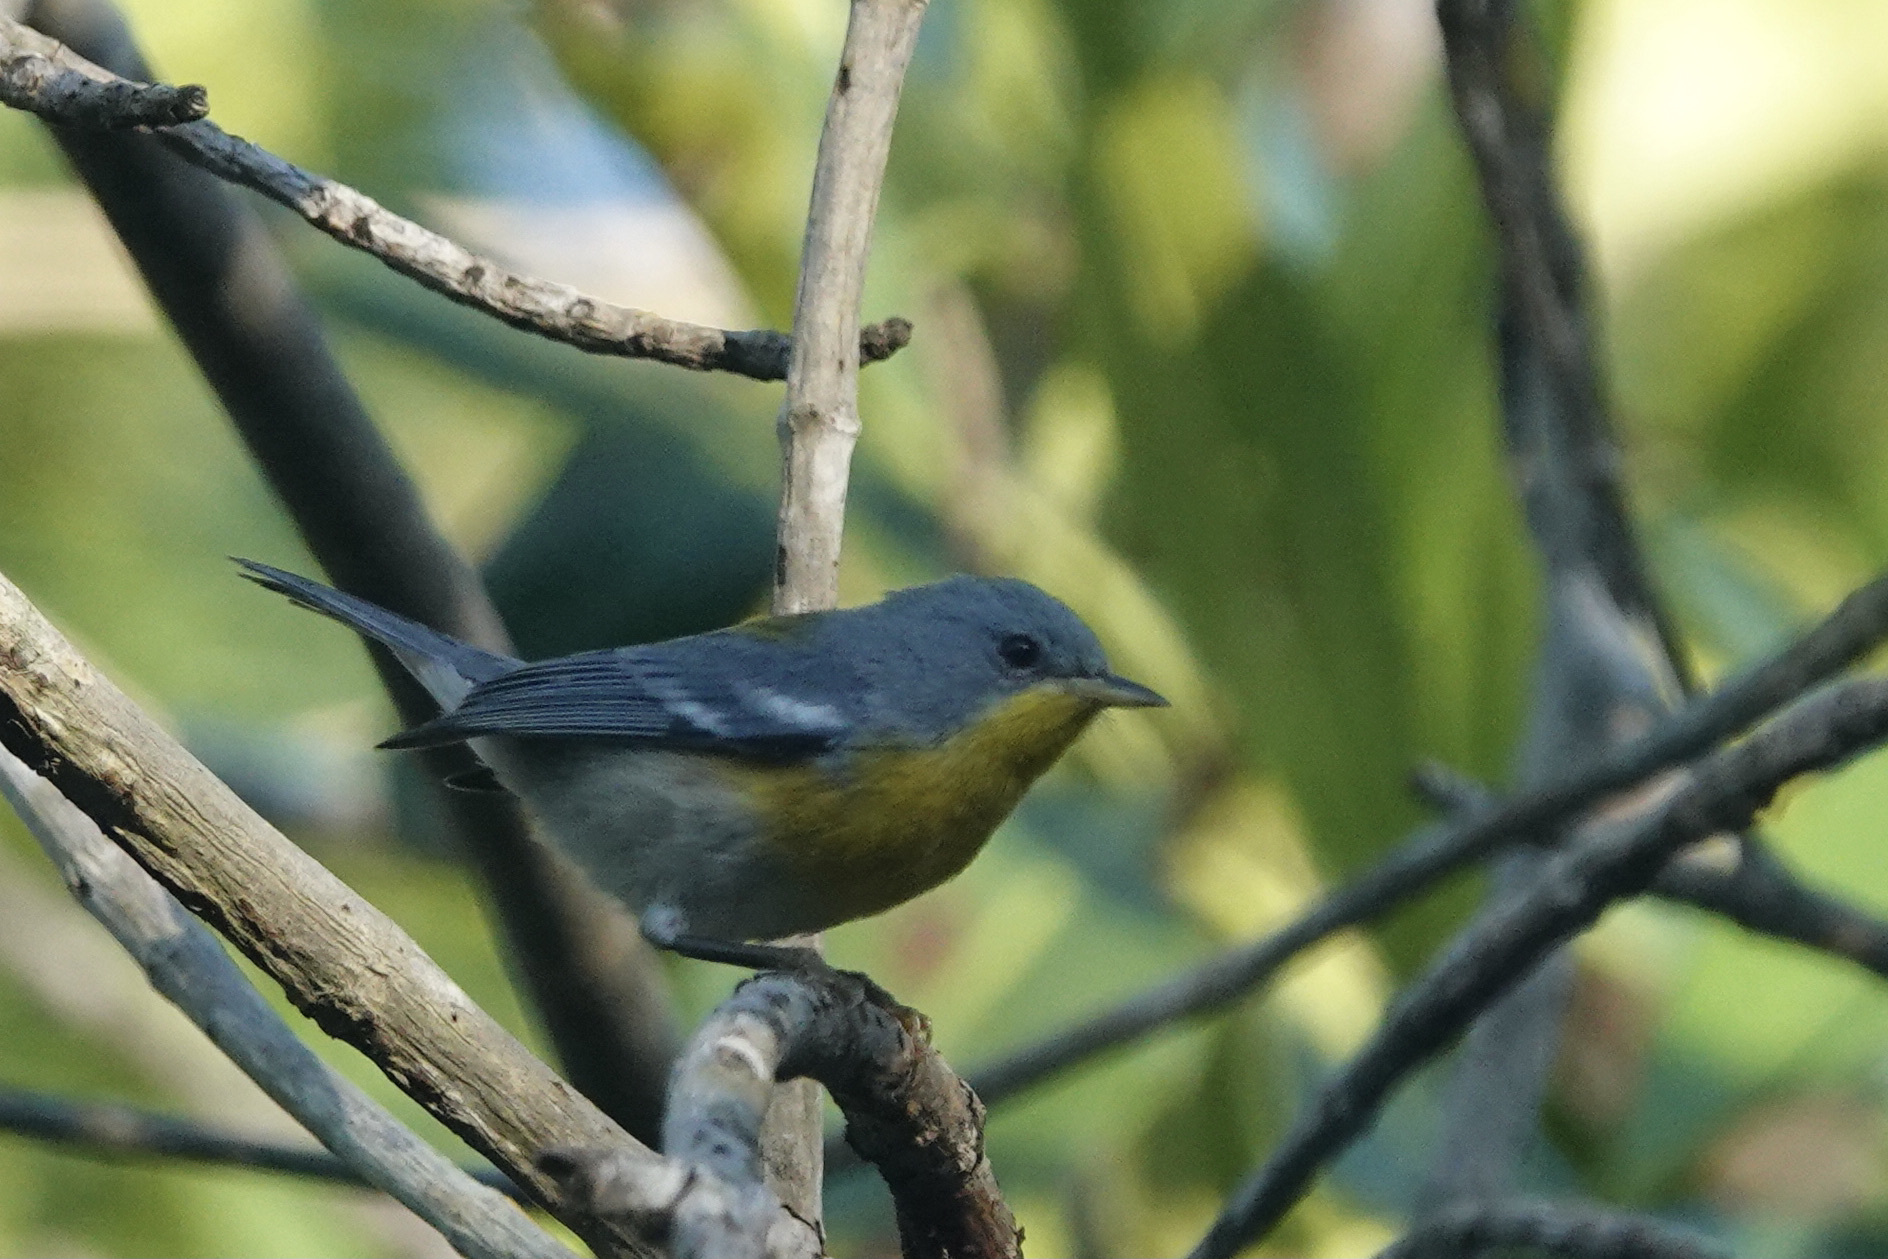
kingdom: Animalia
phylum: Chordata
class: Aves
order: Passeriformes
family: Parulidae
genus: Setophaga
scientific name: Setophaga pitiayumi
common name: Tropical parula
